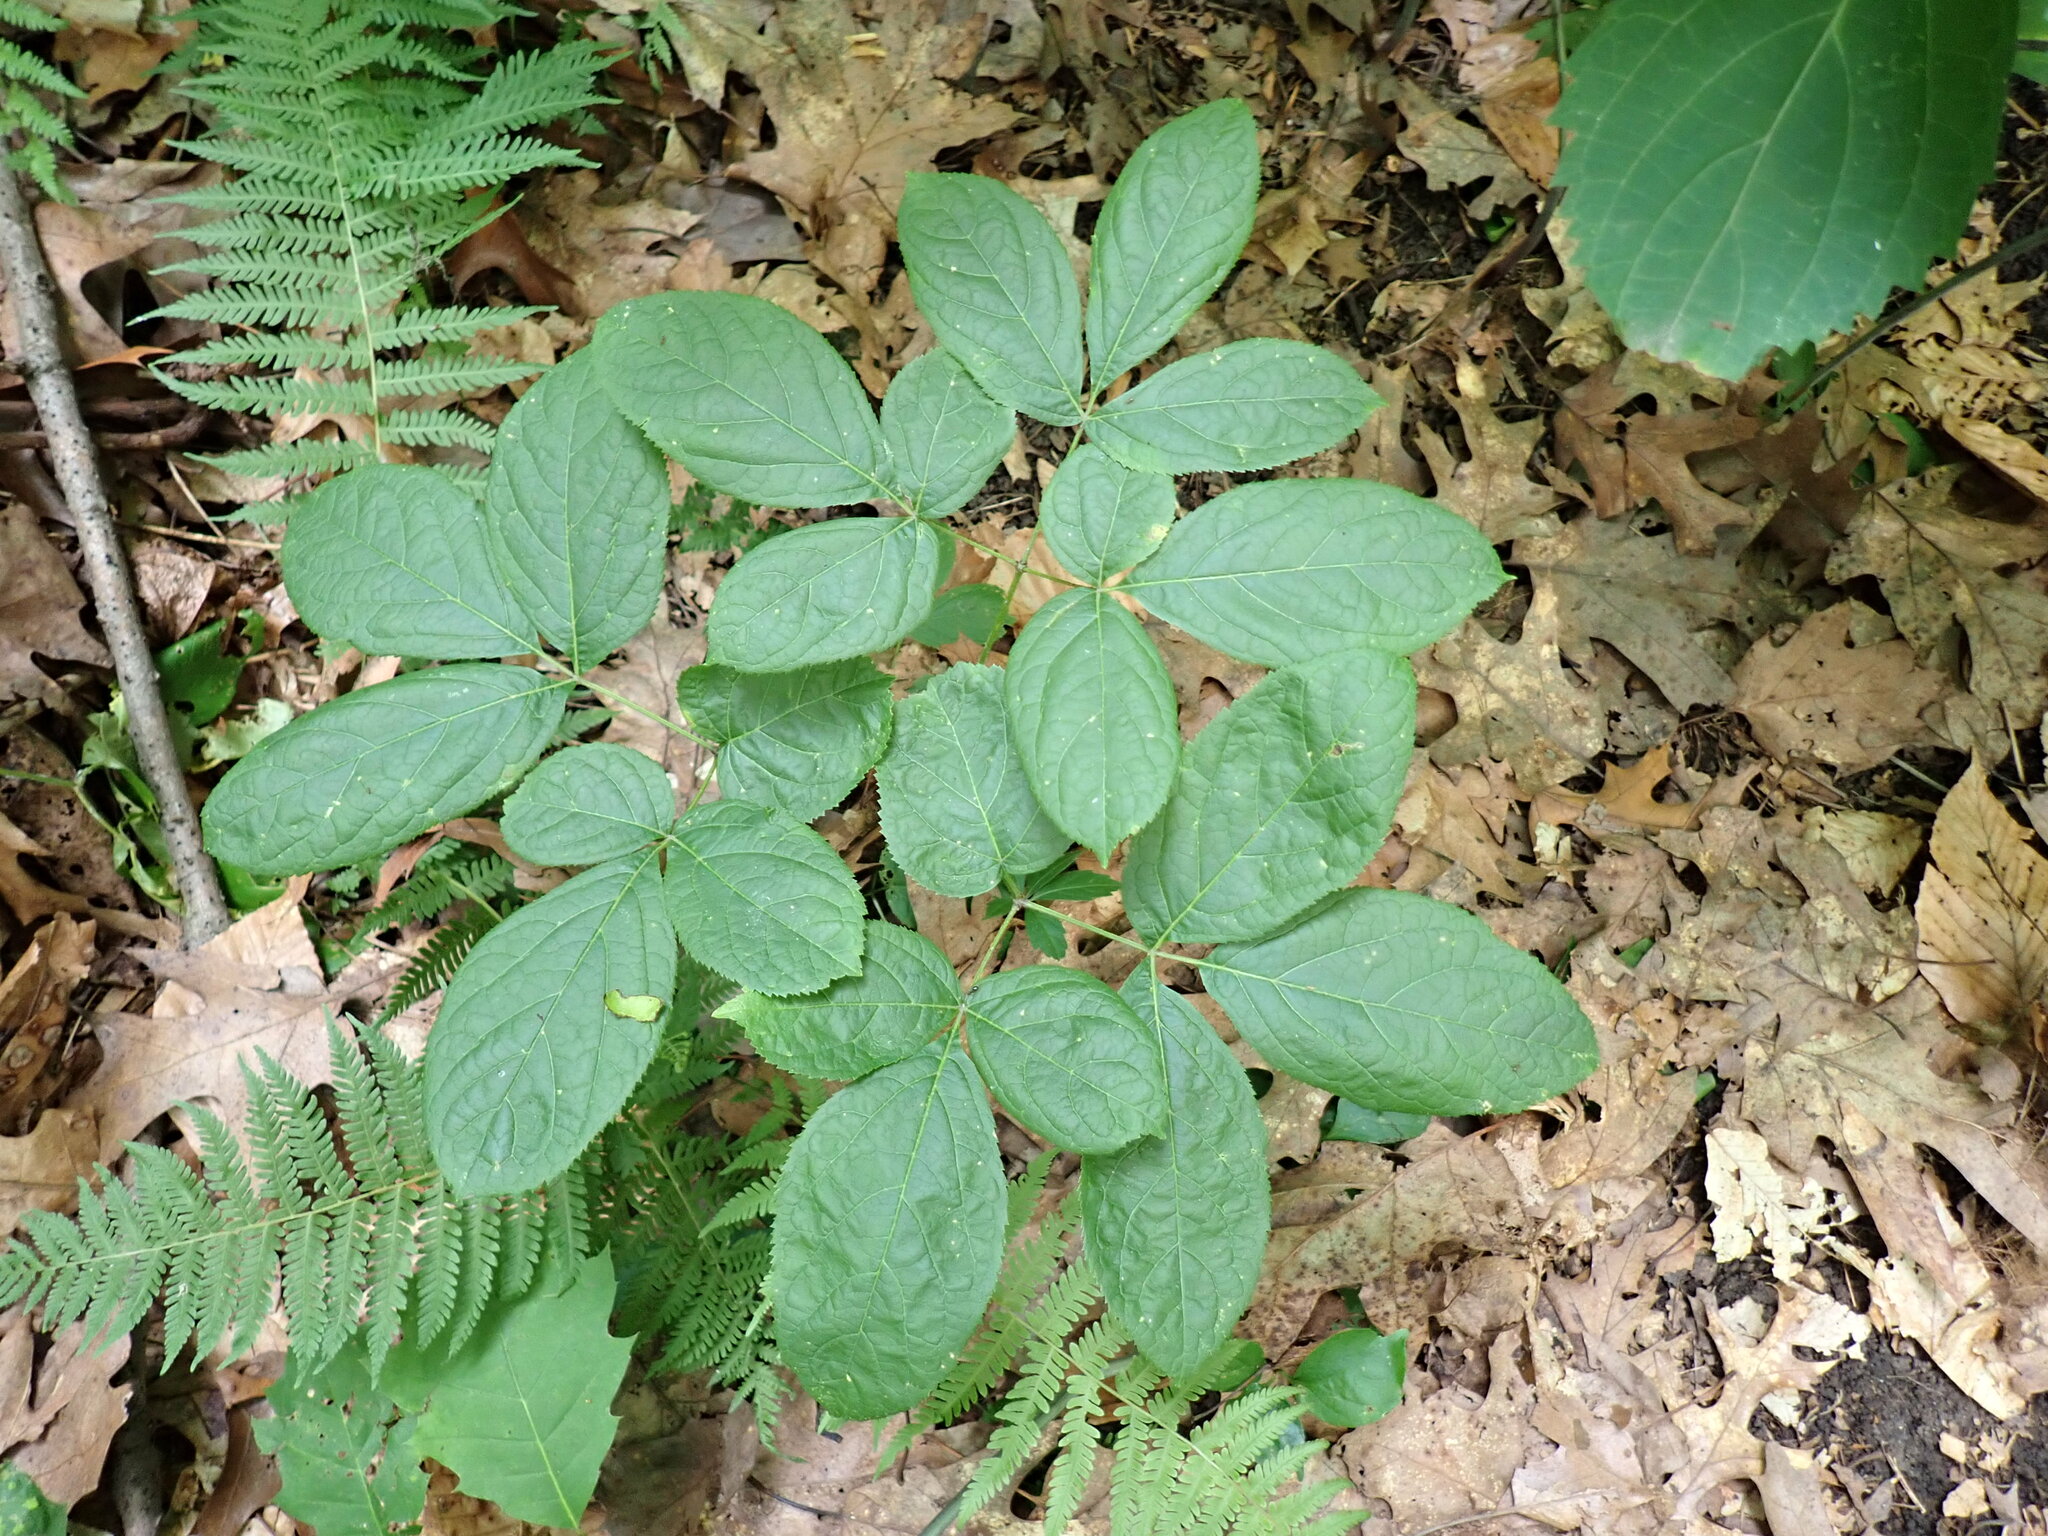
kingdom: Plantae
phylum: Tracheophyta
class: Magnoliopsida
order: Apiales
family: Araliaceae
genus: Aralia
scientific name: Aralia nudicaulis
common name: Wild sarsaparilla
